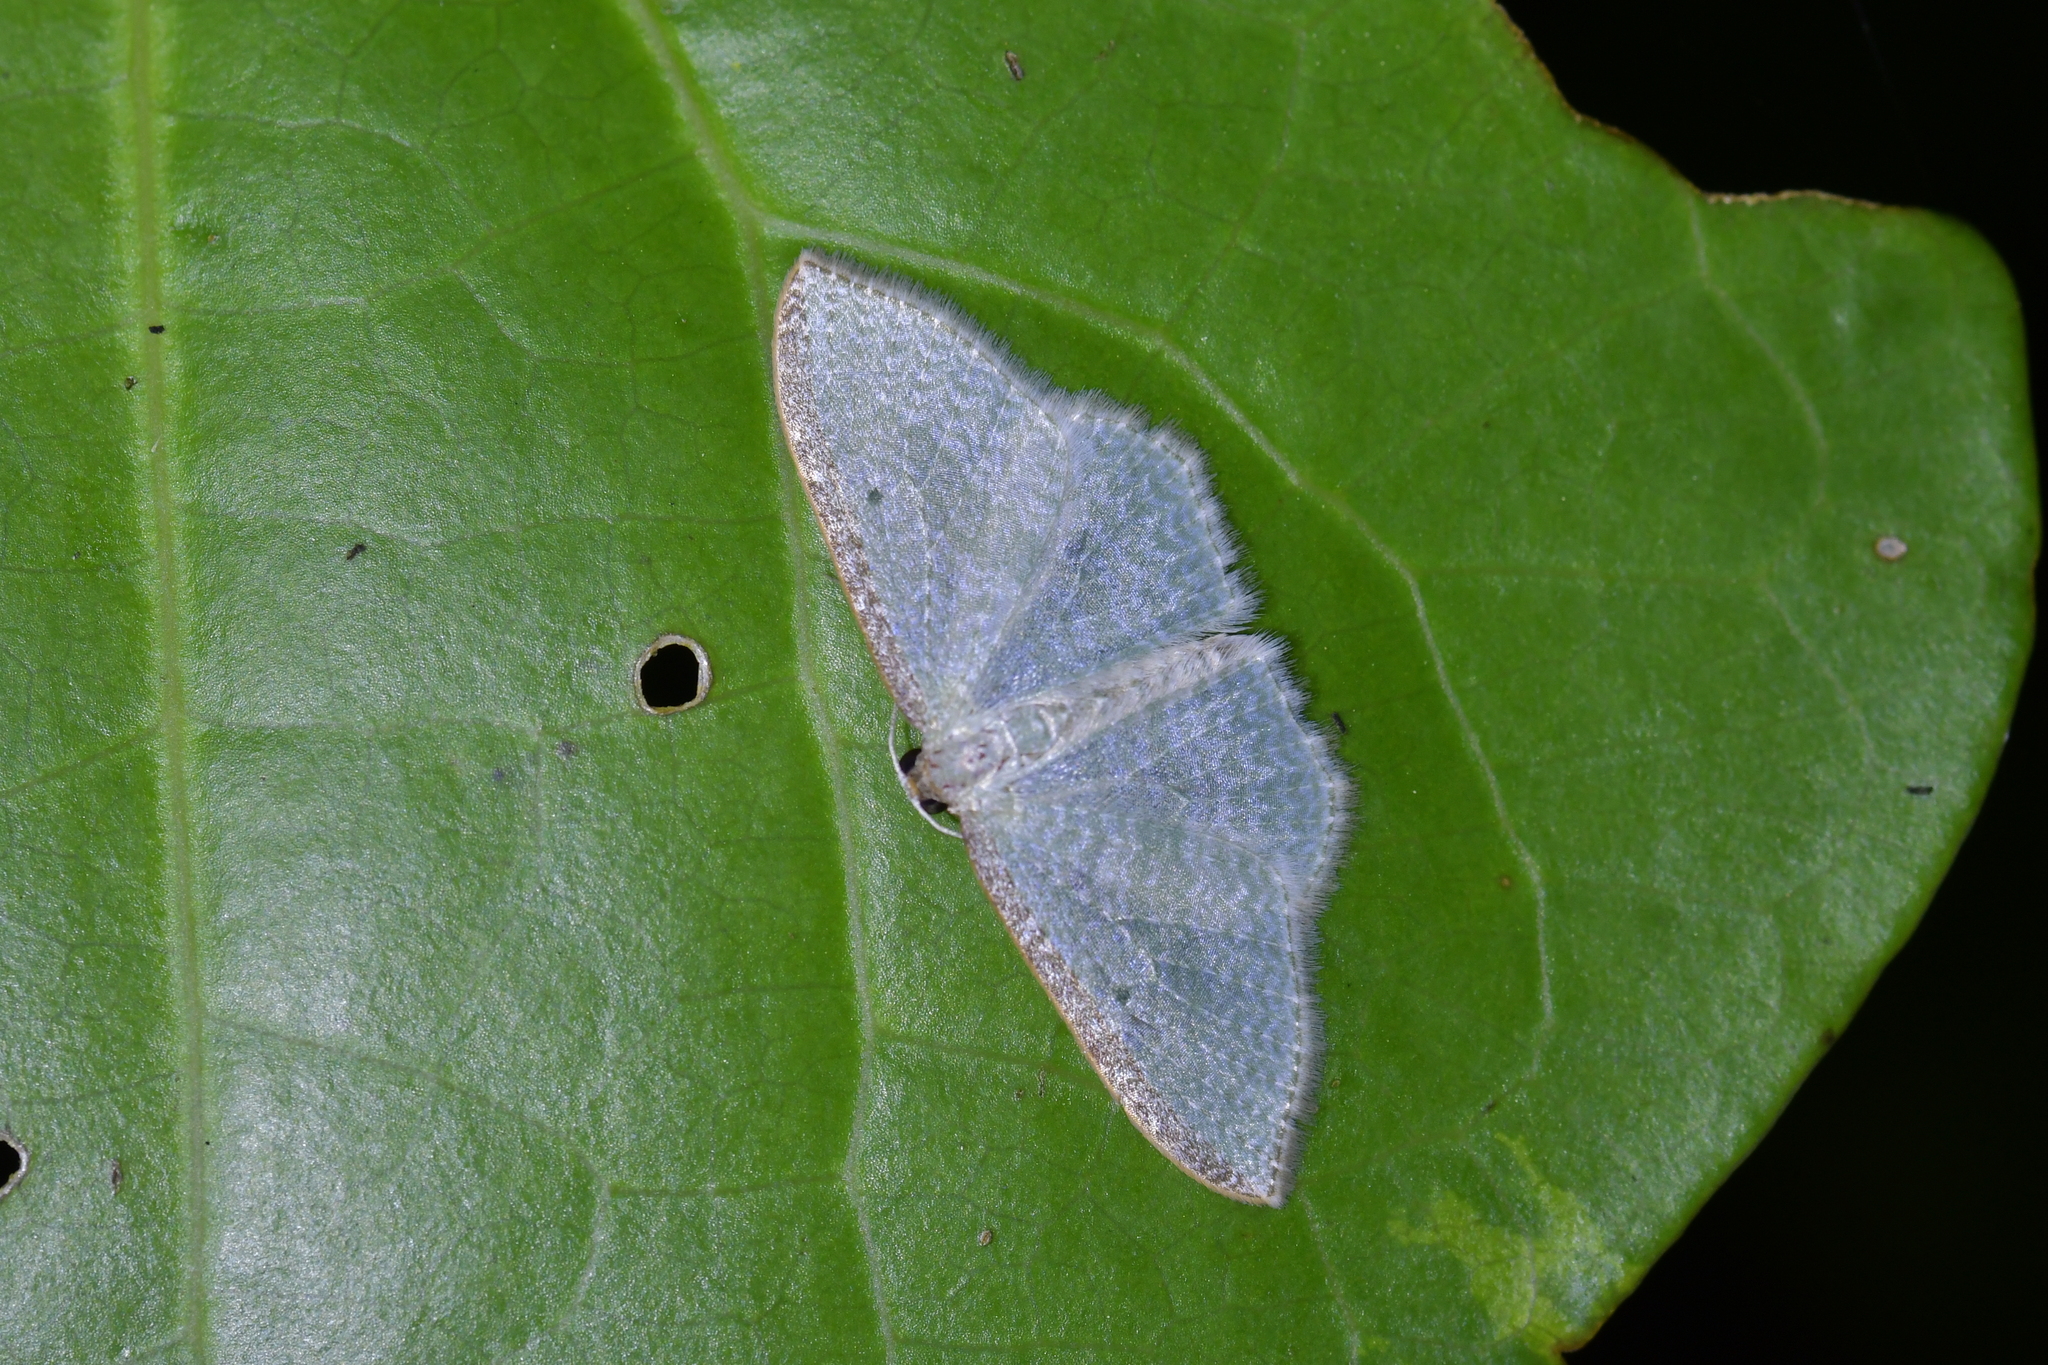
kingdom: Animalia
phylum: Arthropoda
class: Insecta
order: Lepidoptera
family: Geometridae
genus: Poecilasthena
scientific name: Poecilasthena pulchraria
